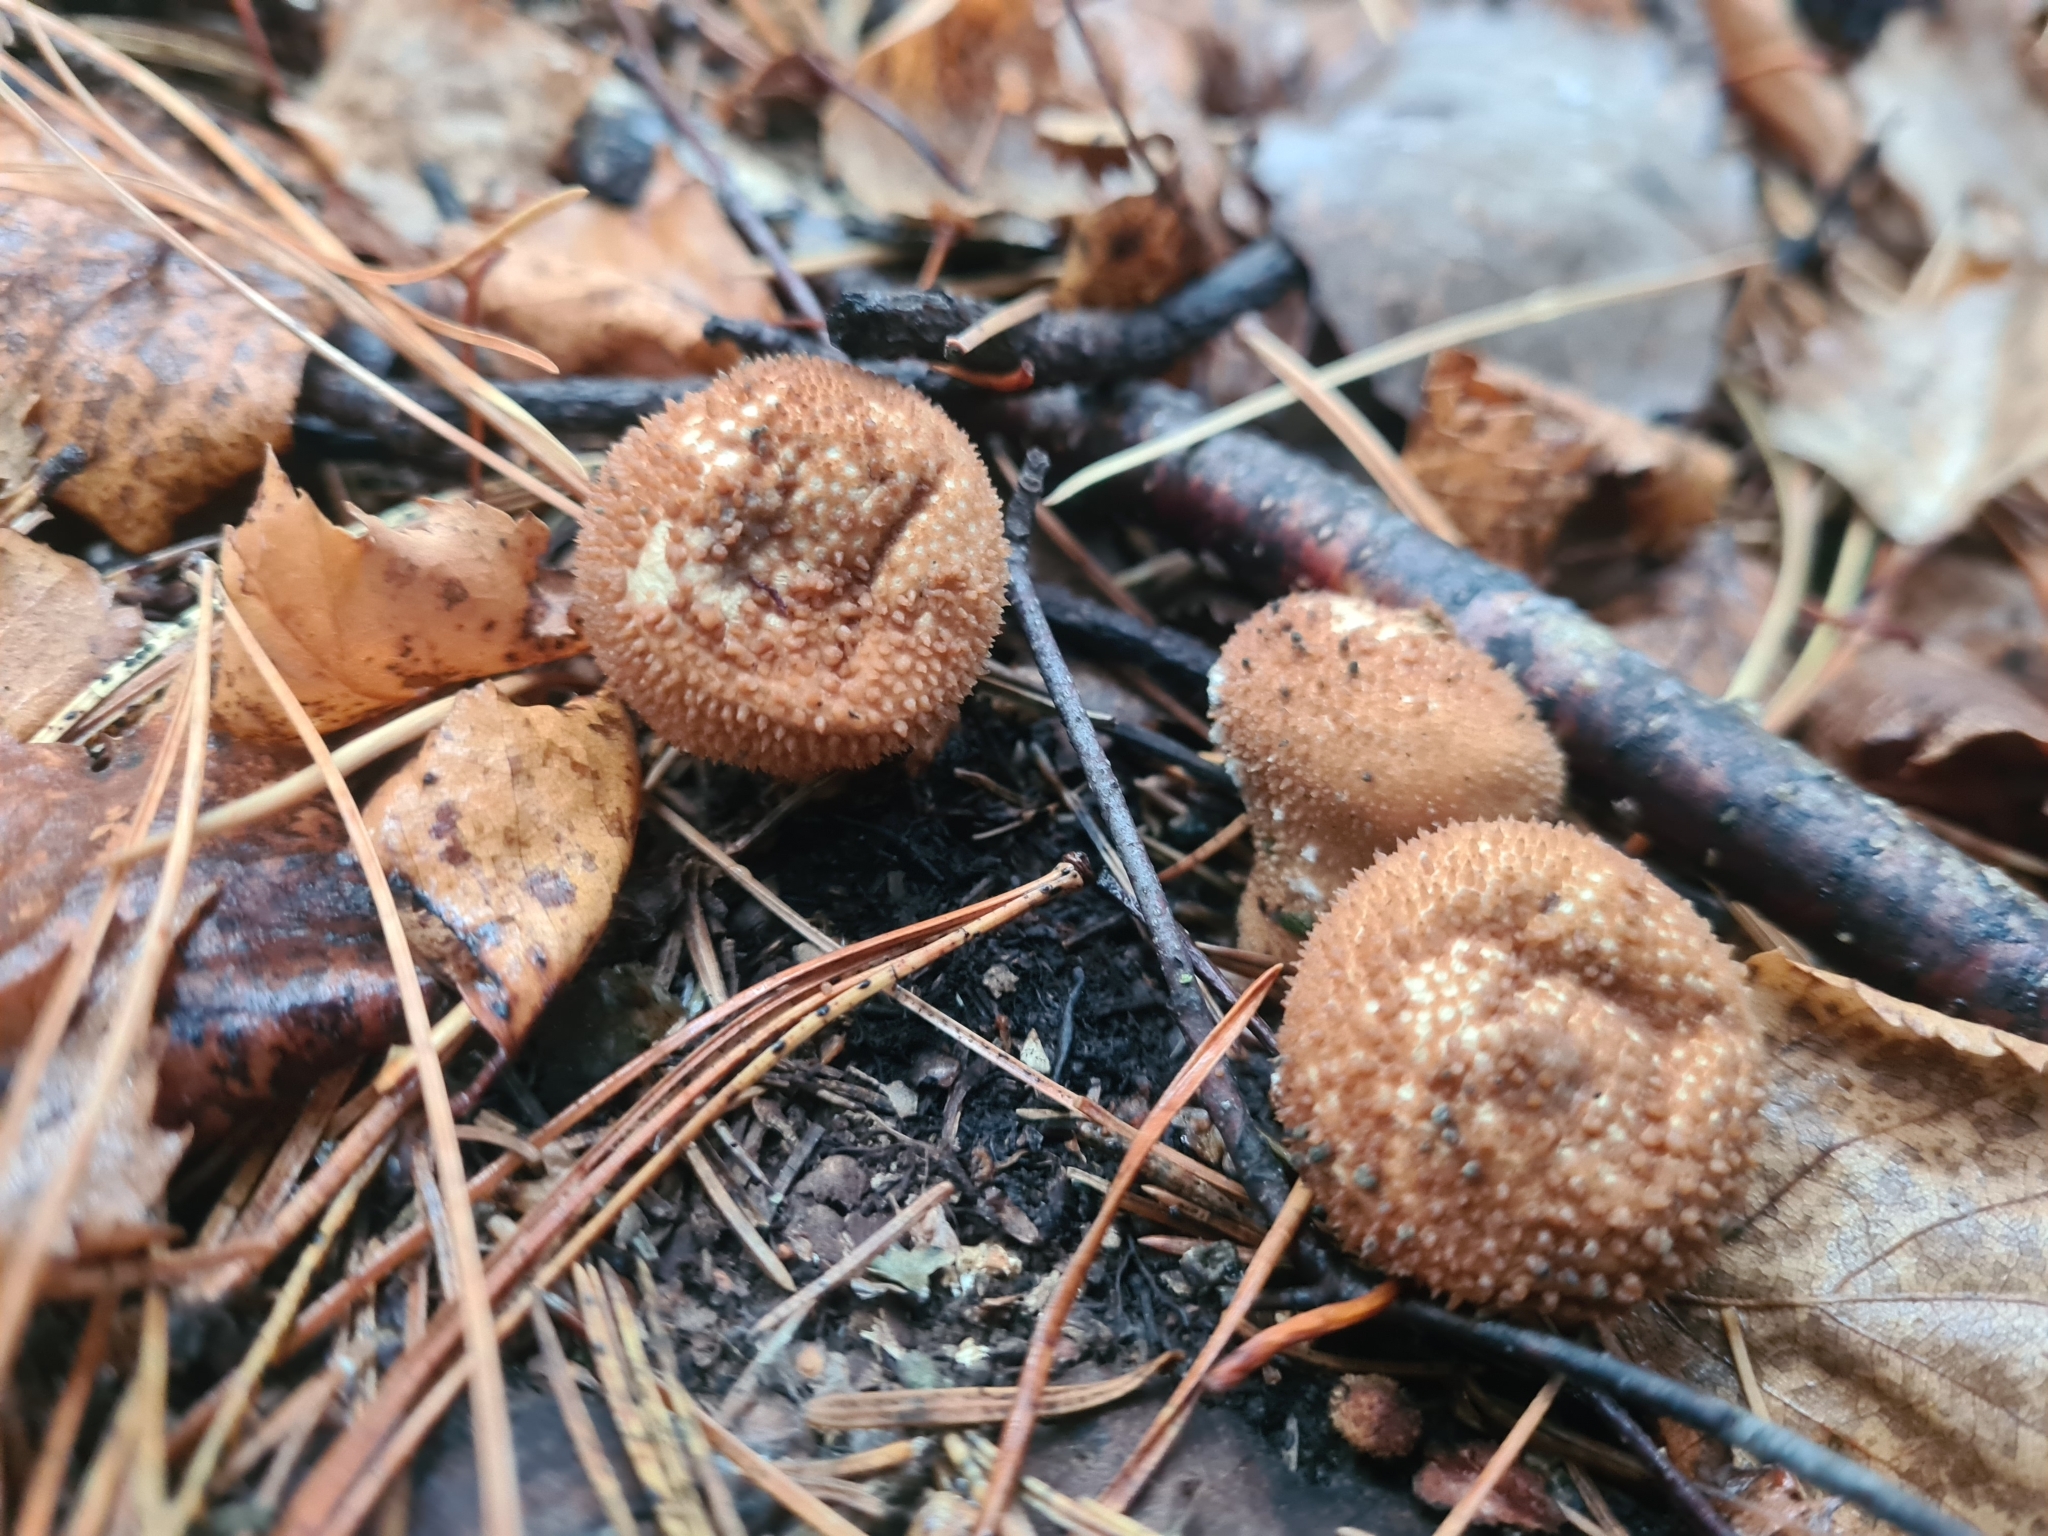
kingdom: Fungi
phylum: Basidiomycota
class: Agaricomycetes
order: Agaricales
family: Lycoperdaceae
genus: Lycoperdon
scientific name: Lycoperdon perlatum
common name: Common puffball
